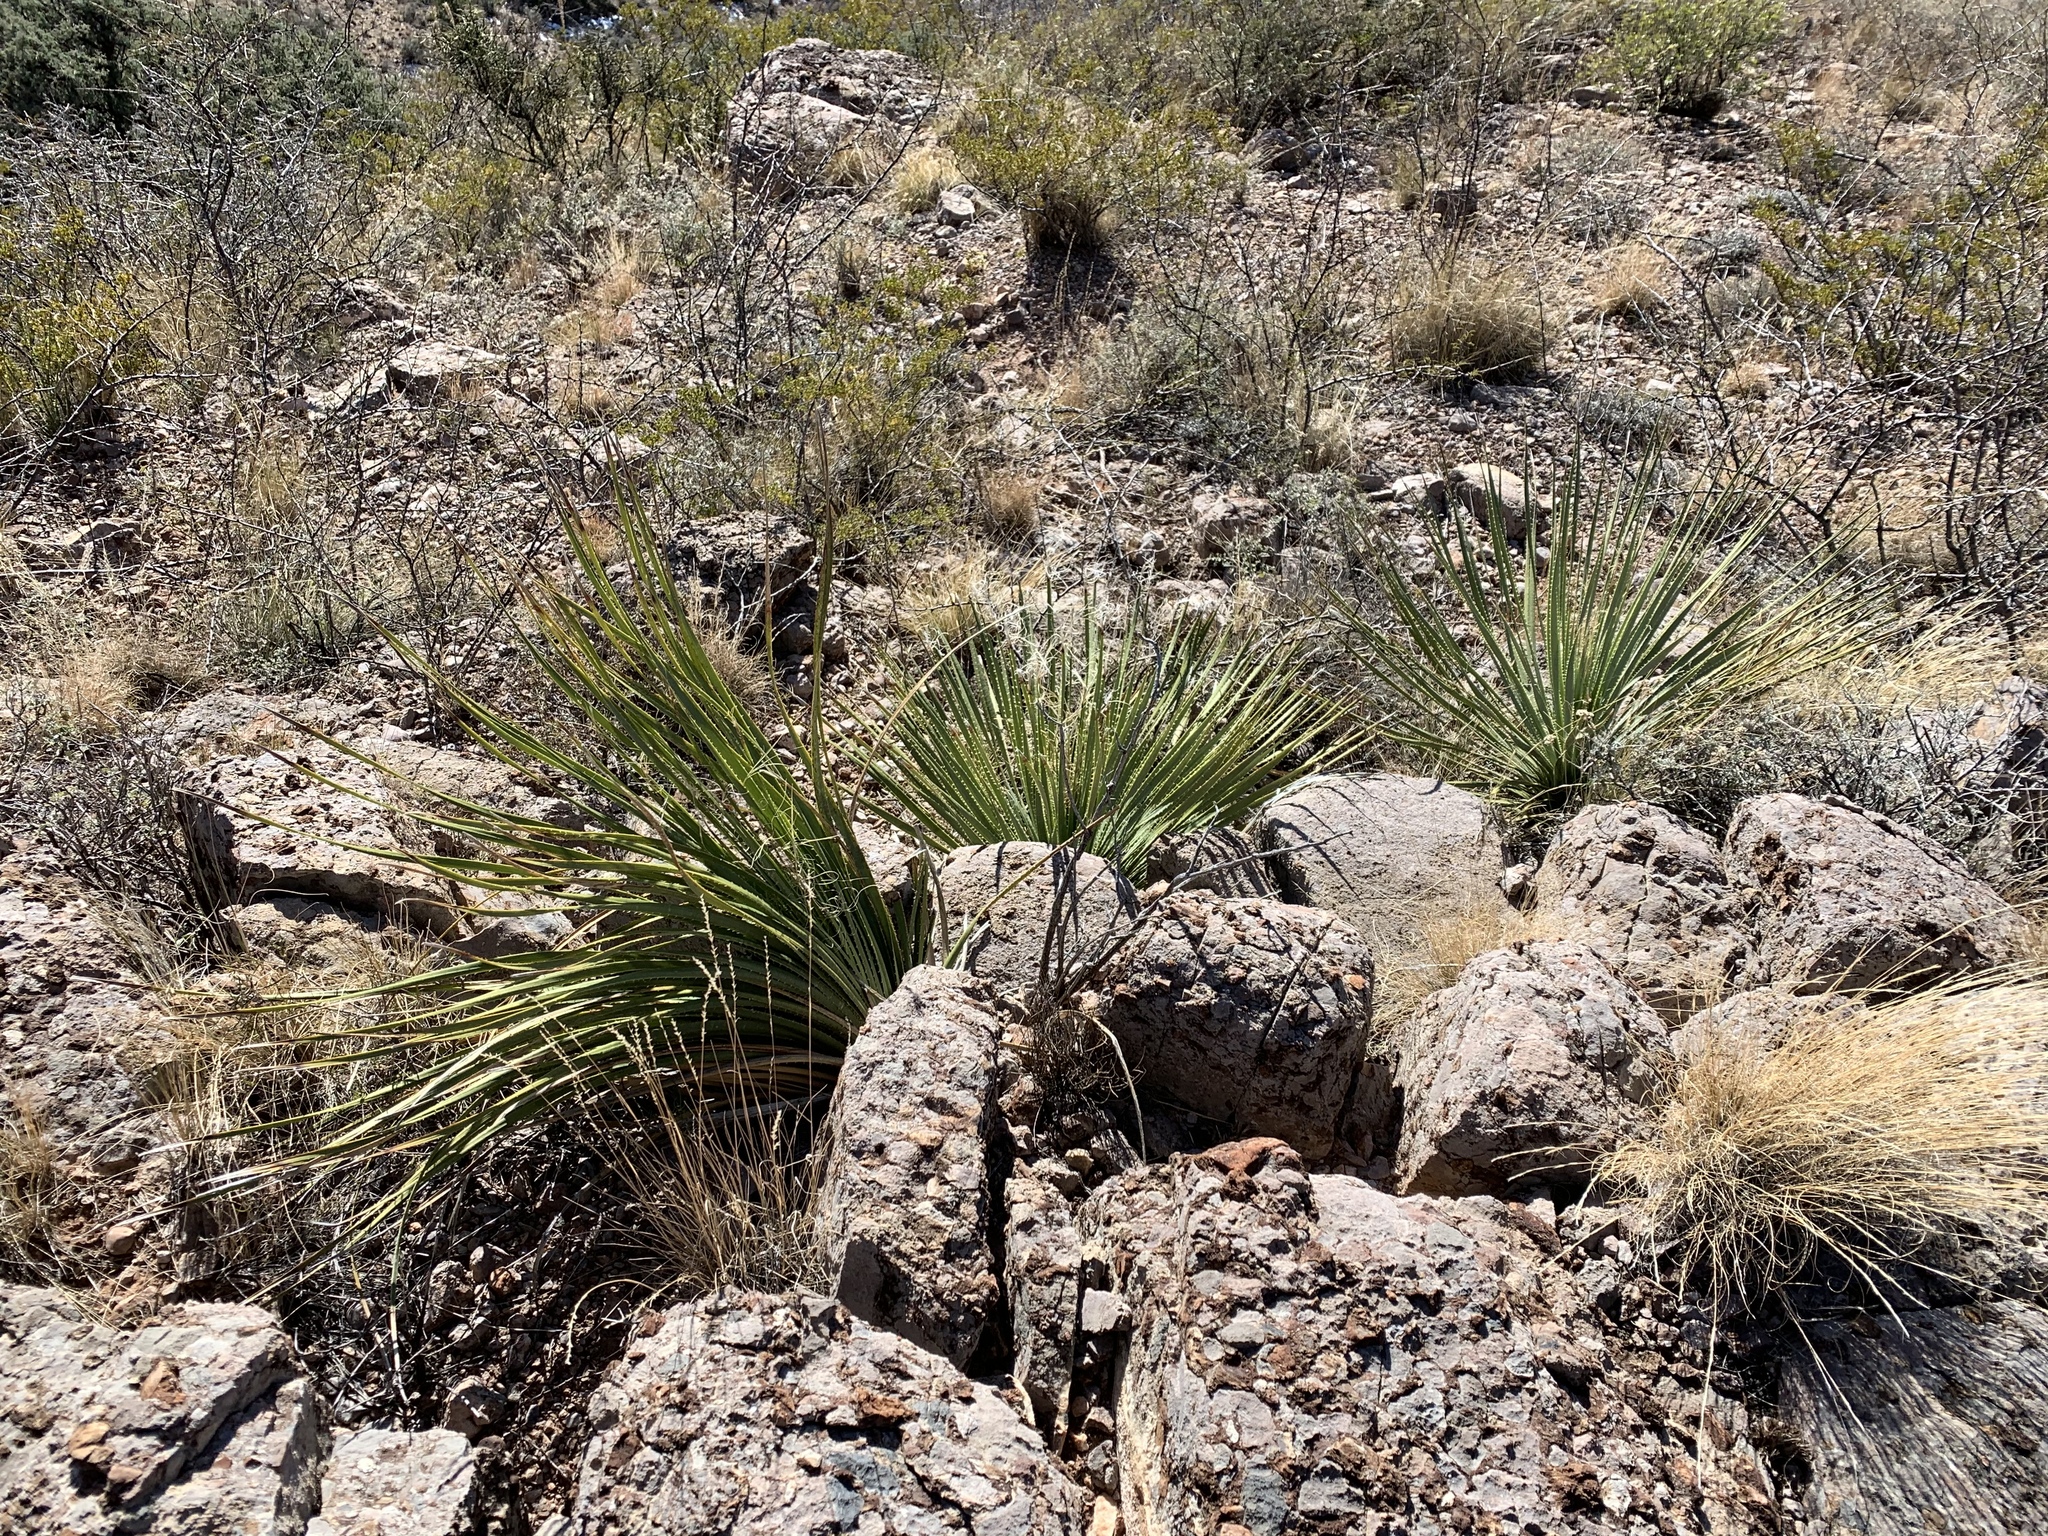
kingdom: Plantae
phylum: Tracheophyta
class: Liliopsida
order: Asparagales
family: Asparagaceae
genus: Dasylirion
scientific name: Dasylirion wheeleri
